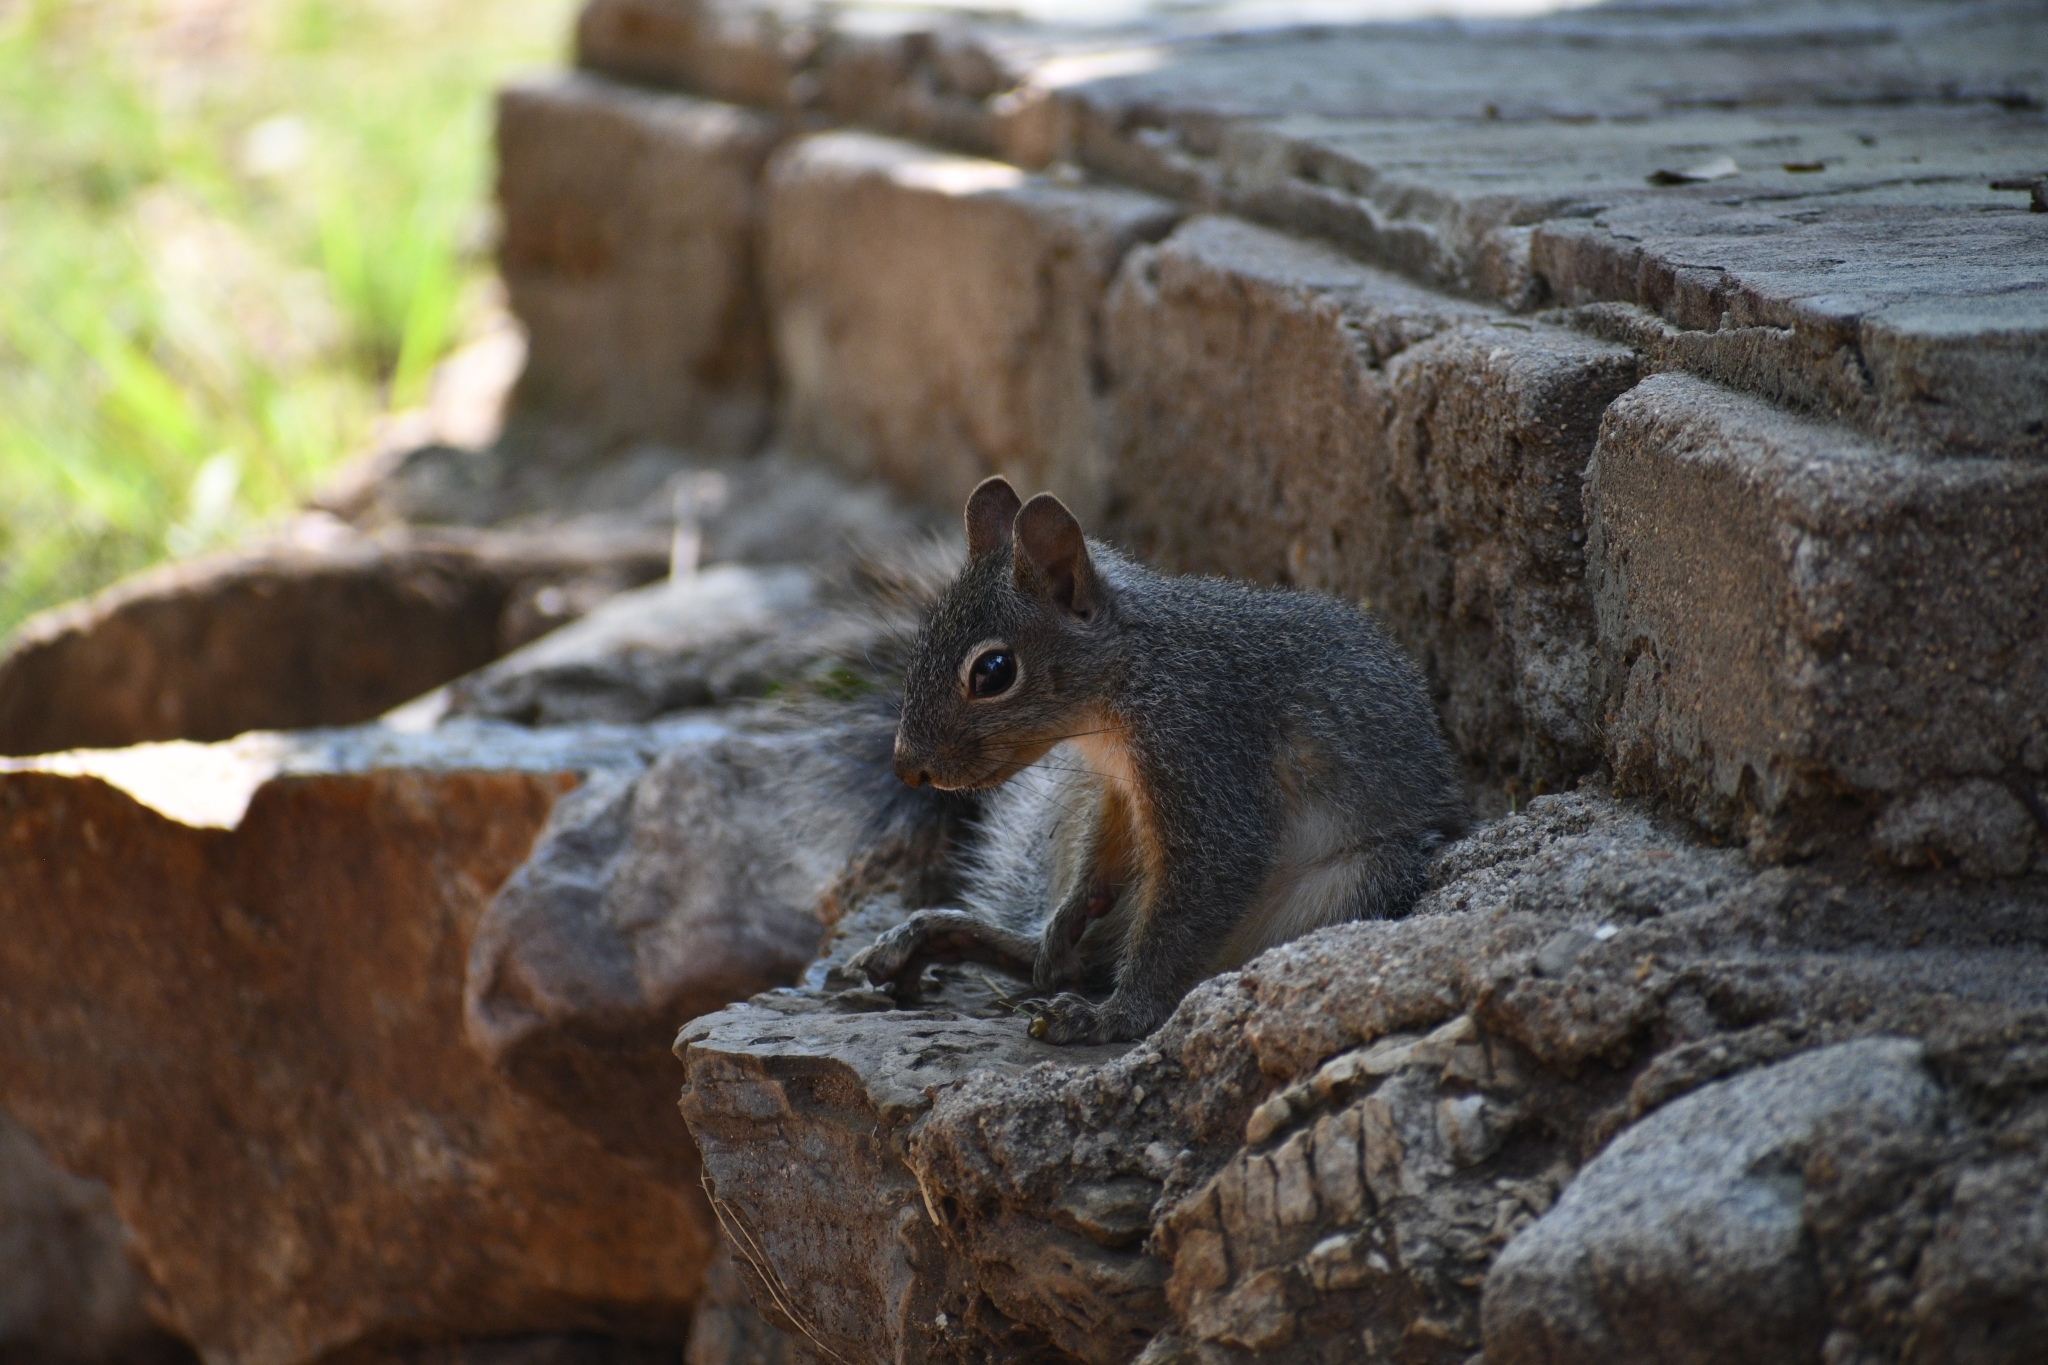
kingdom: Animalia
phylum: Chordata
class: Mammalia
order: Rodentia
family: Sciuridae
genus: Sciurus
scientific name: Sciurus arizonensis
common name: Arizona gray squirrel
